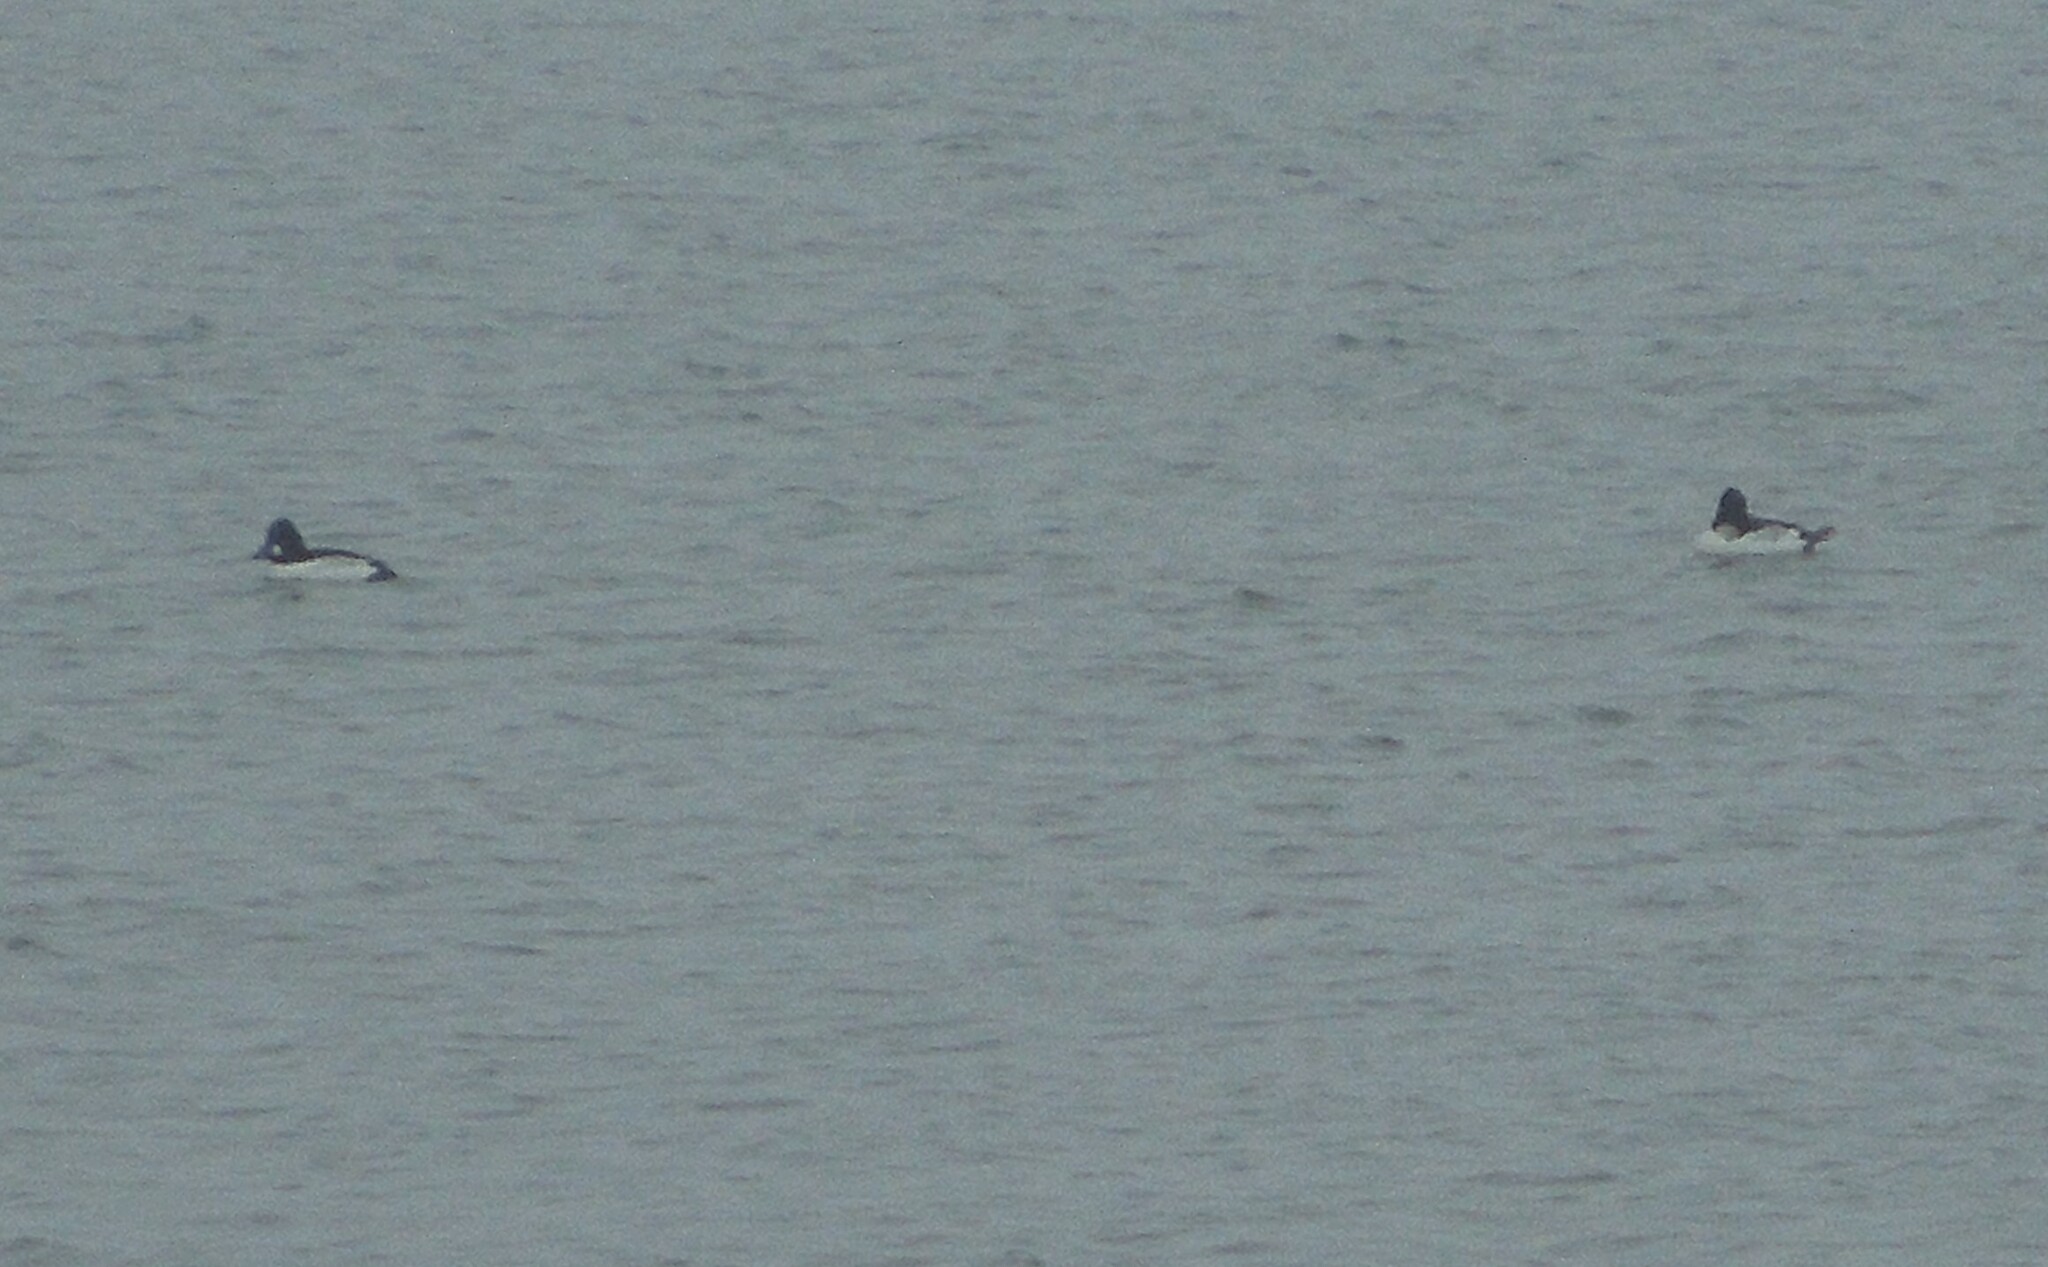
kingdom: Animalia
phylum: Chordata
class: Aves
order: Anseriformes
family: Anatidae
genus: Bucephala
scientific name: Bucephala clangula
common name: Common goldeneye
